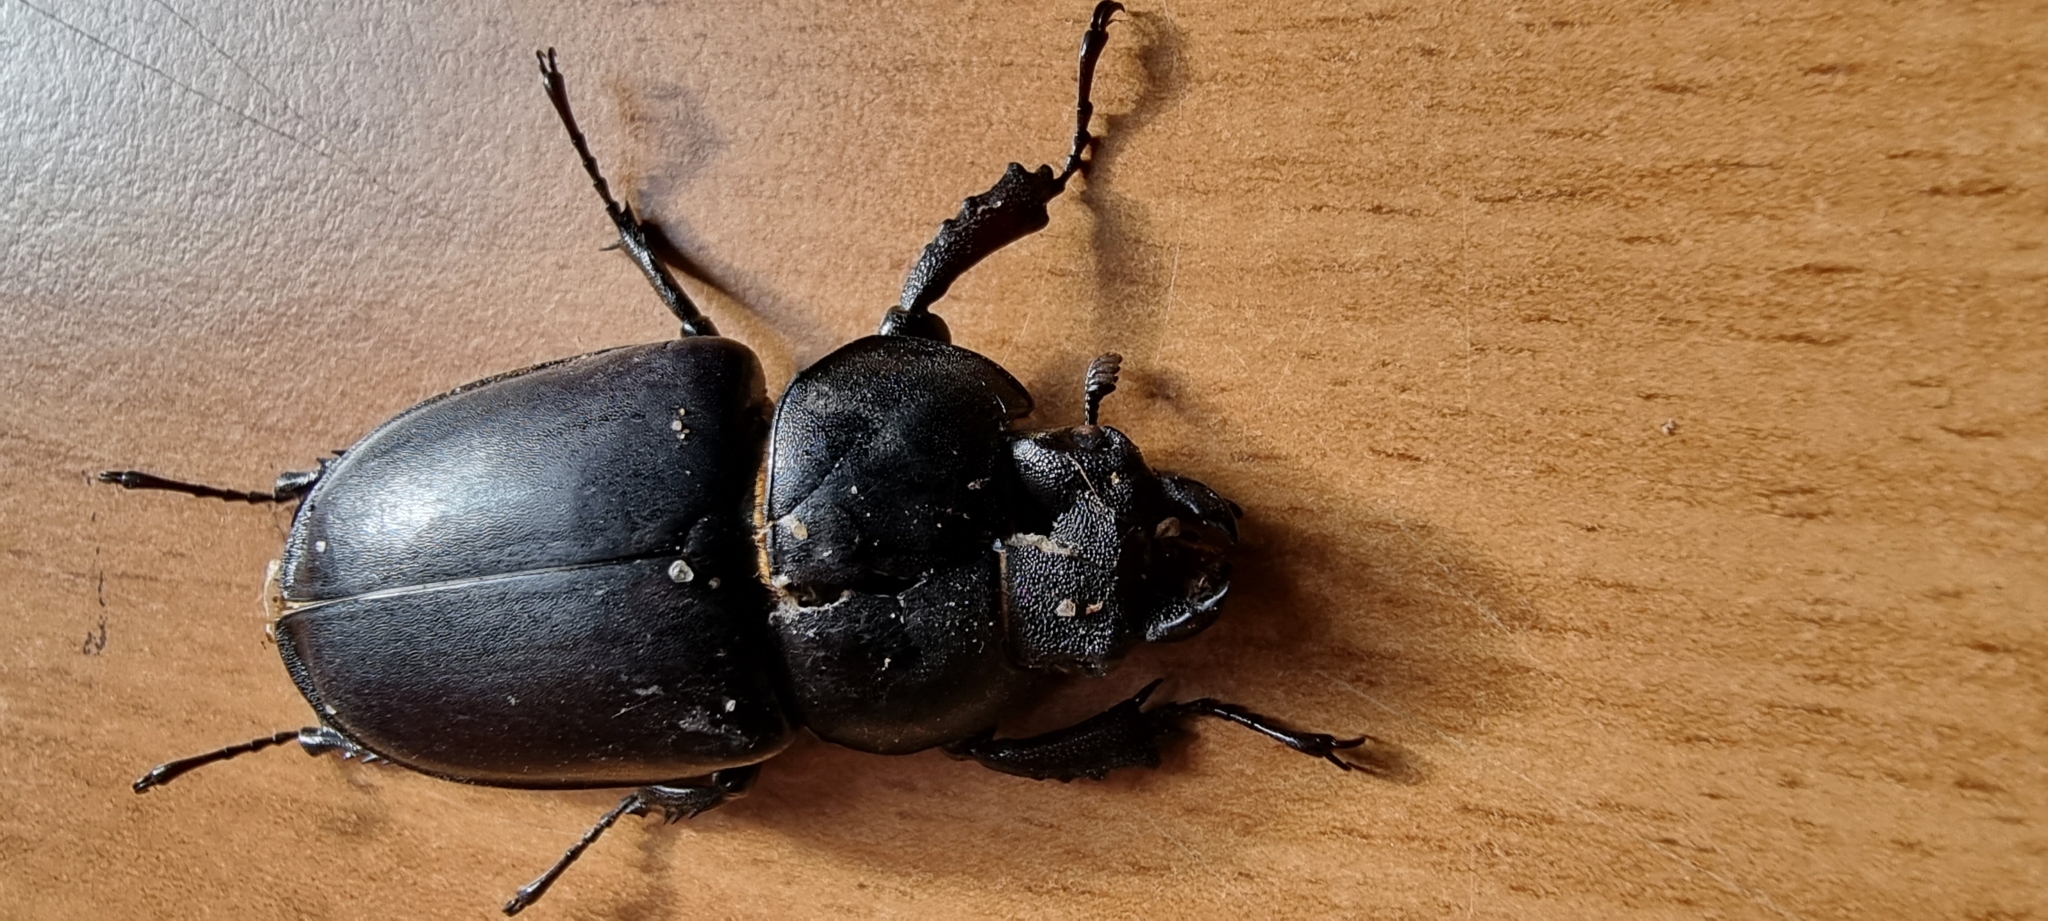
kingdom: Animalia
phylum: Arthropoda
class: Insecta
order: Coleoptera
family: Lucanidae
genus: Lucanus
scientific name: Lucanus cervus
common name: Stag beetle
